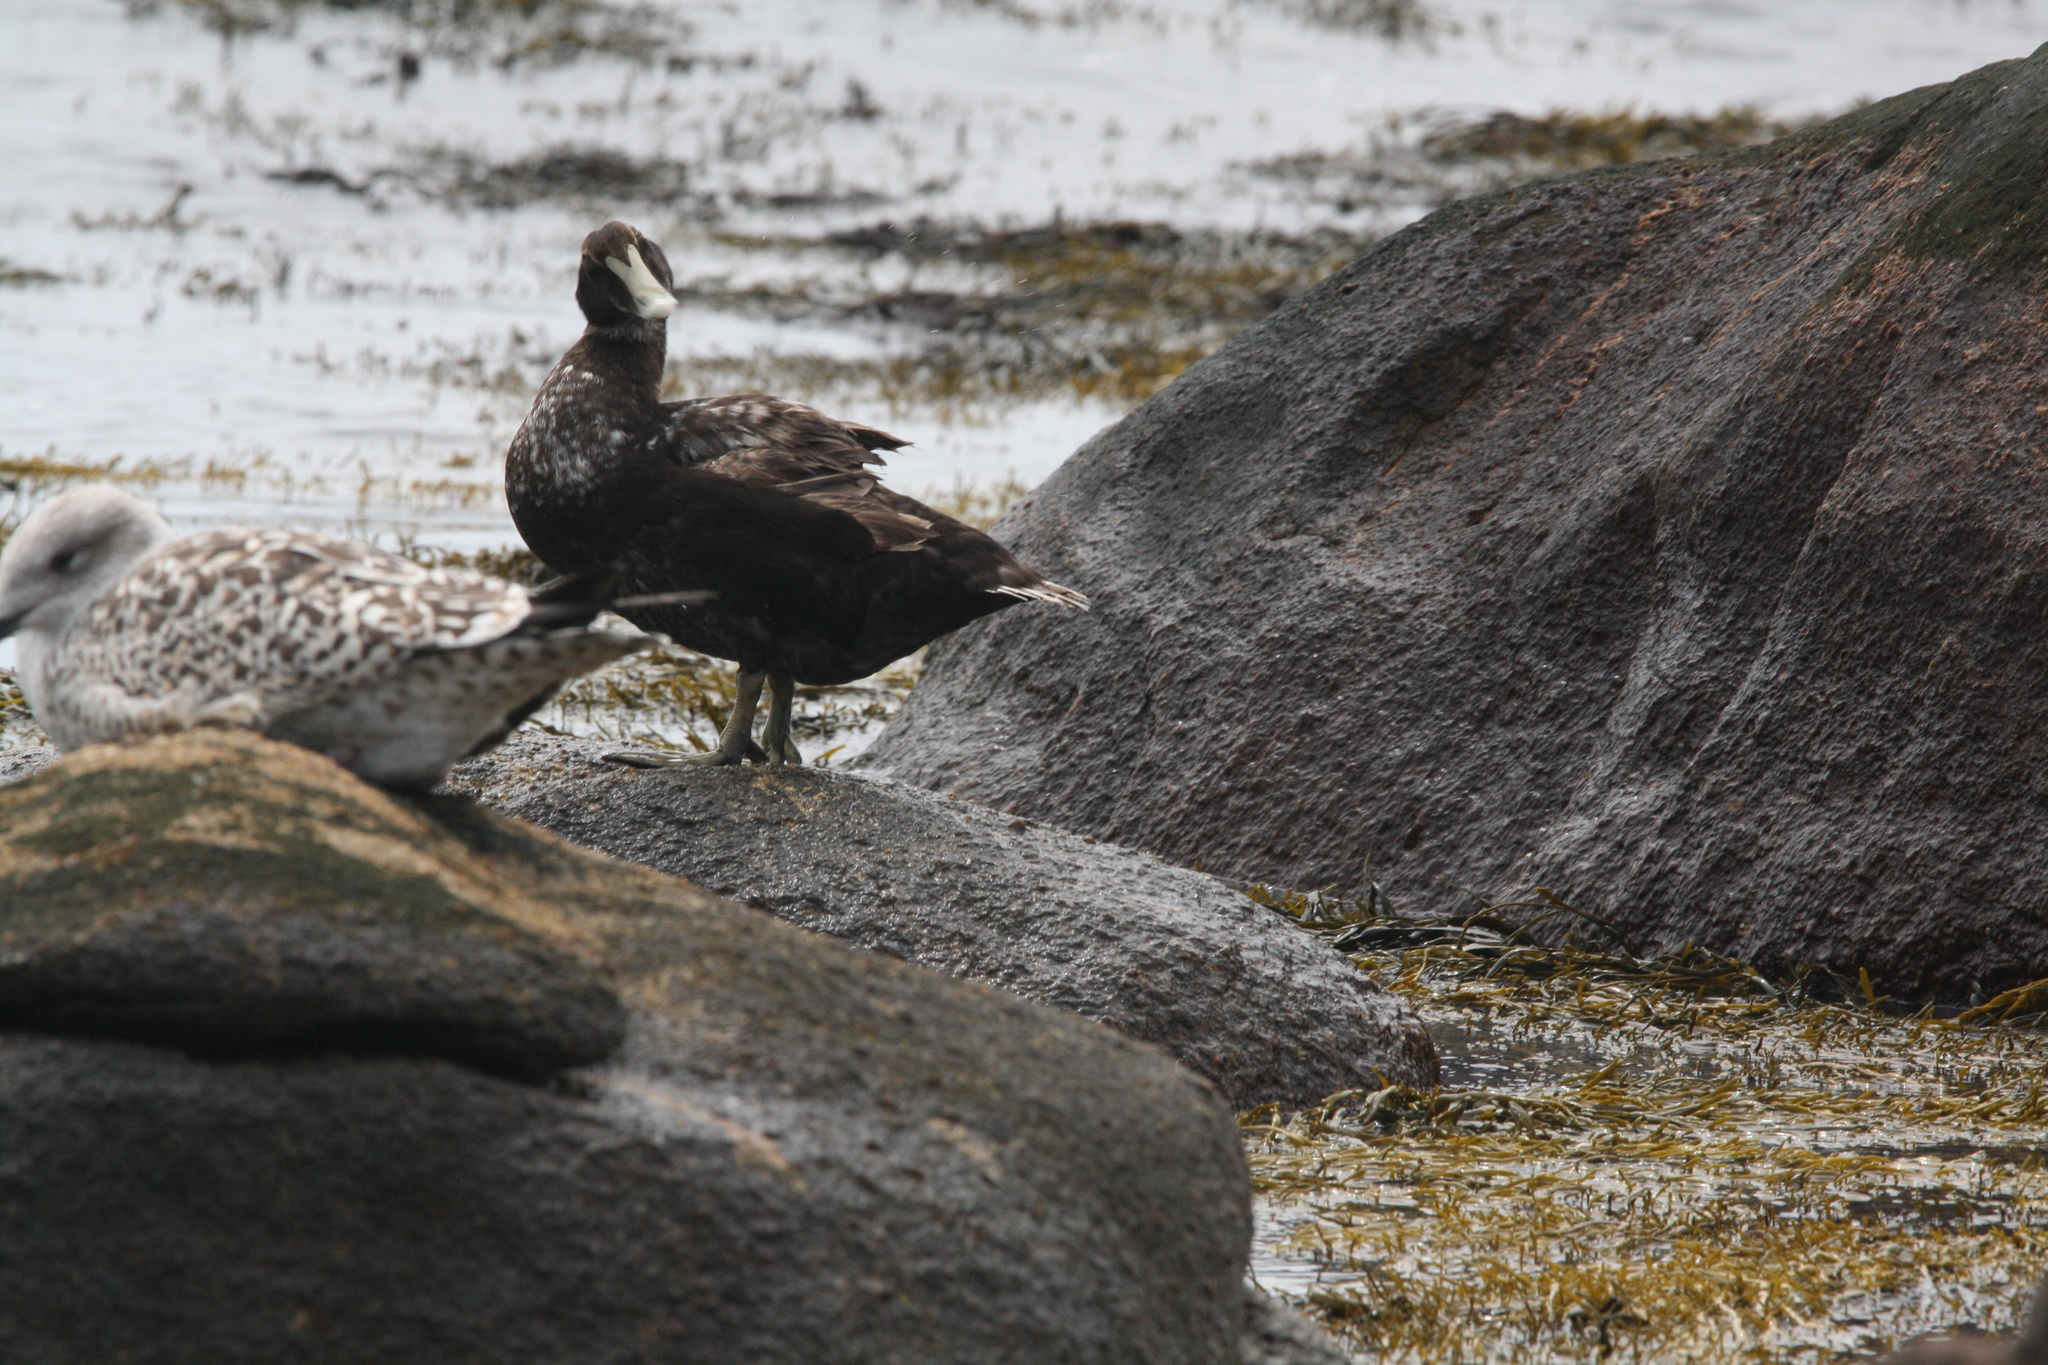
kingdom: Animalia
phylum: Chordata
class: Aves
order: Anseriformes
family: Anatidae
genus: Somateria
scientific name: Somateria mollissima
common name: Common eider
